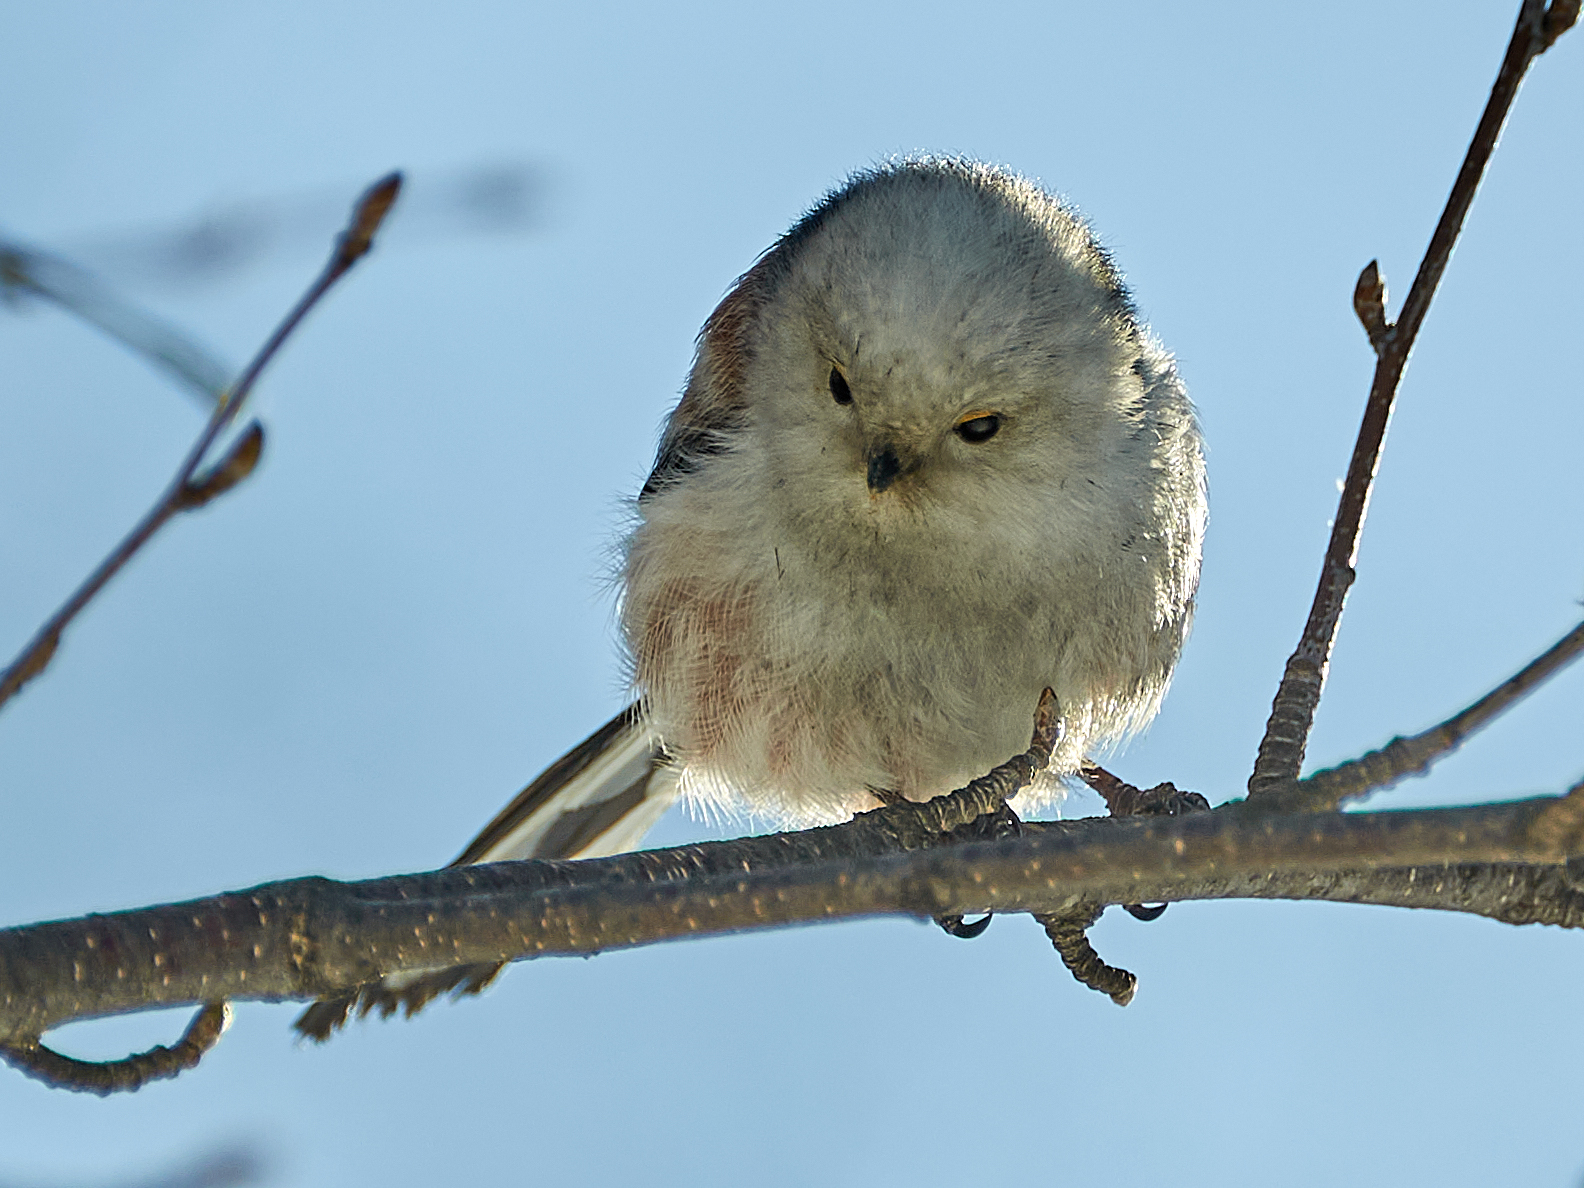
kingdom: Animalia
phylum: Chordata
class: Aves
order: Passeriformes
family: Aegithalidae
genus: Aegithalos
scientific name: Aegithalos caudatus
